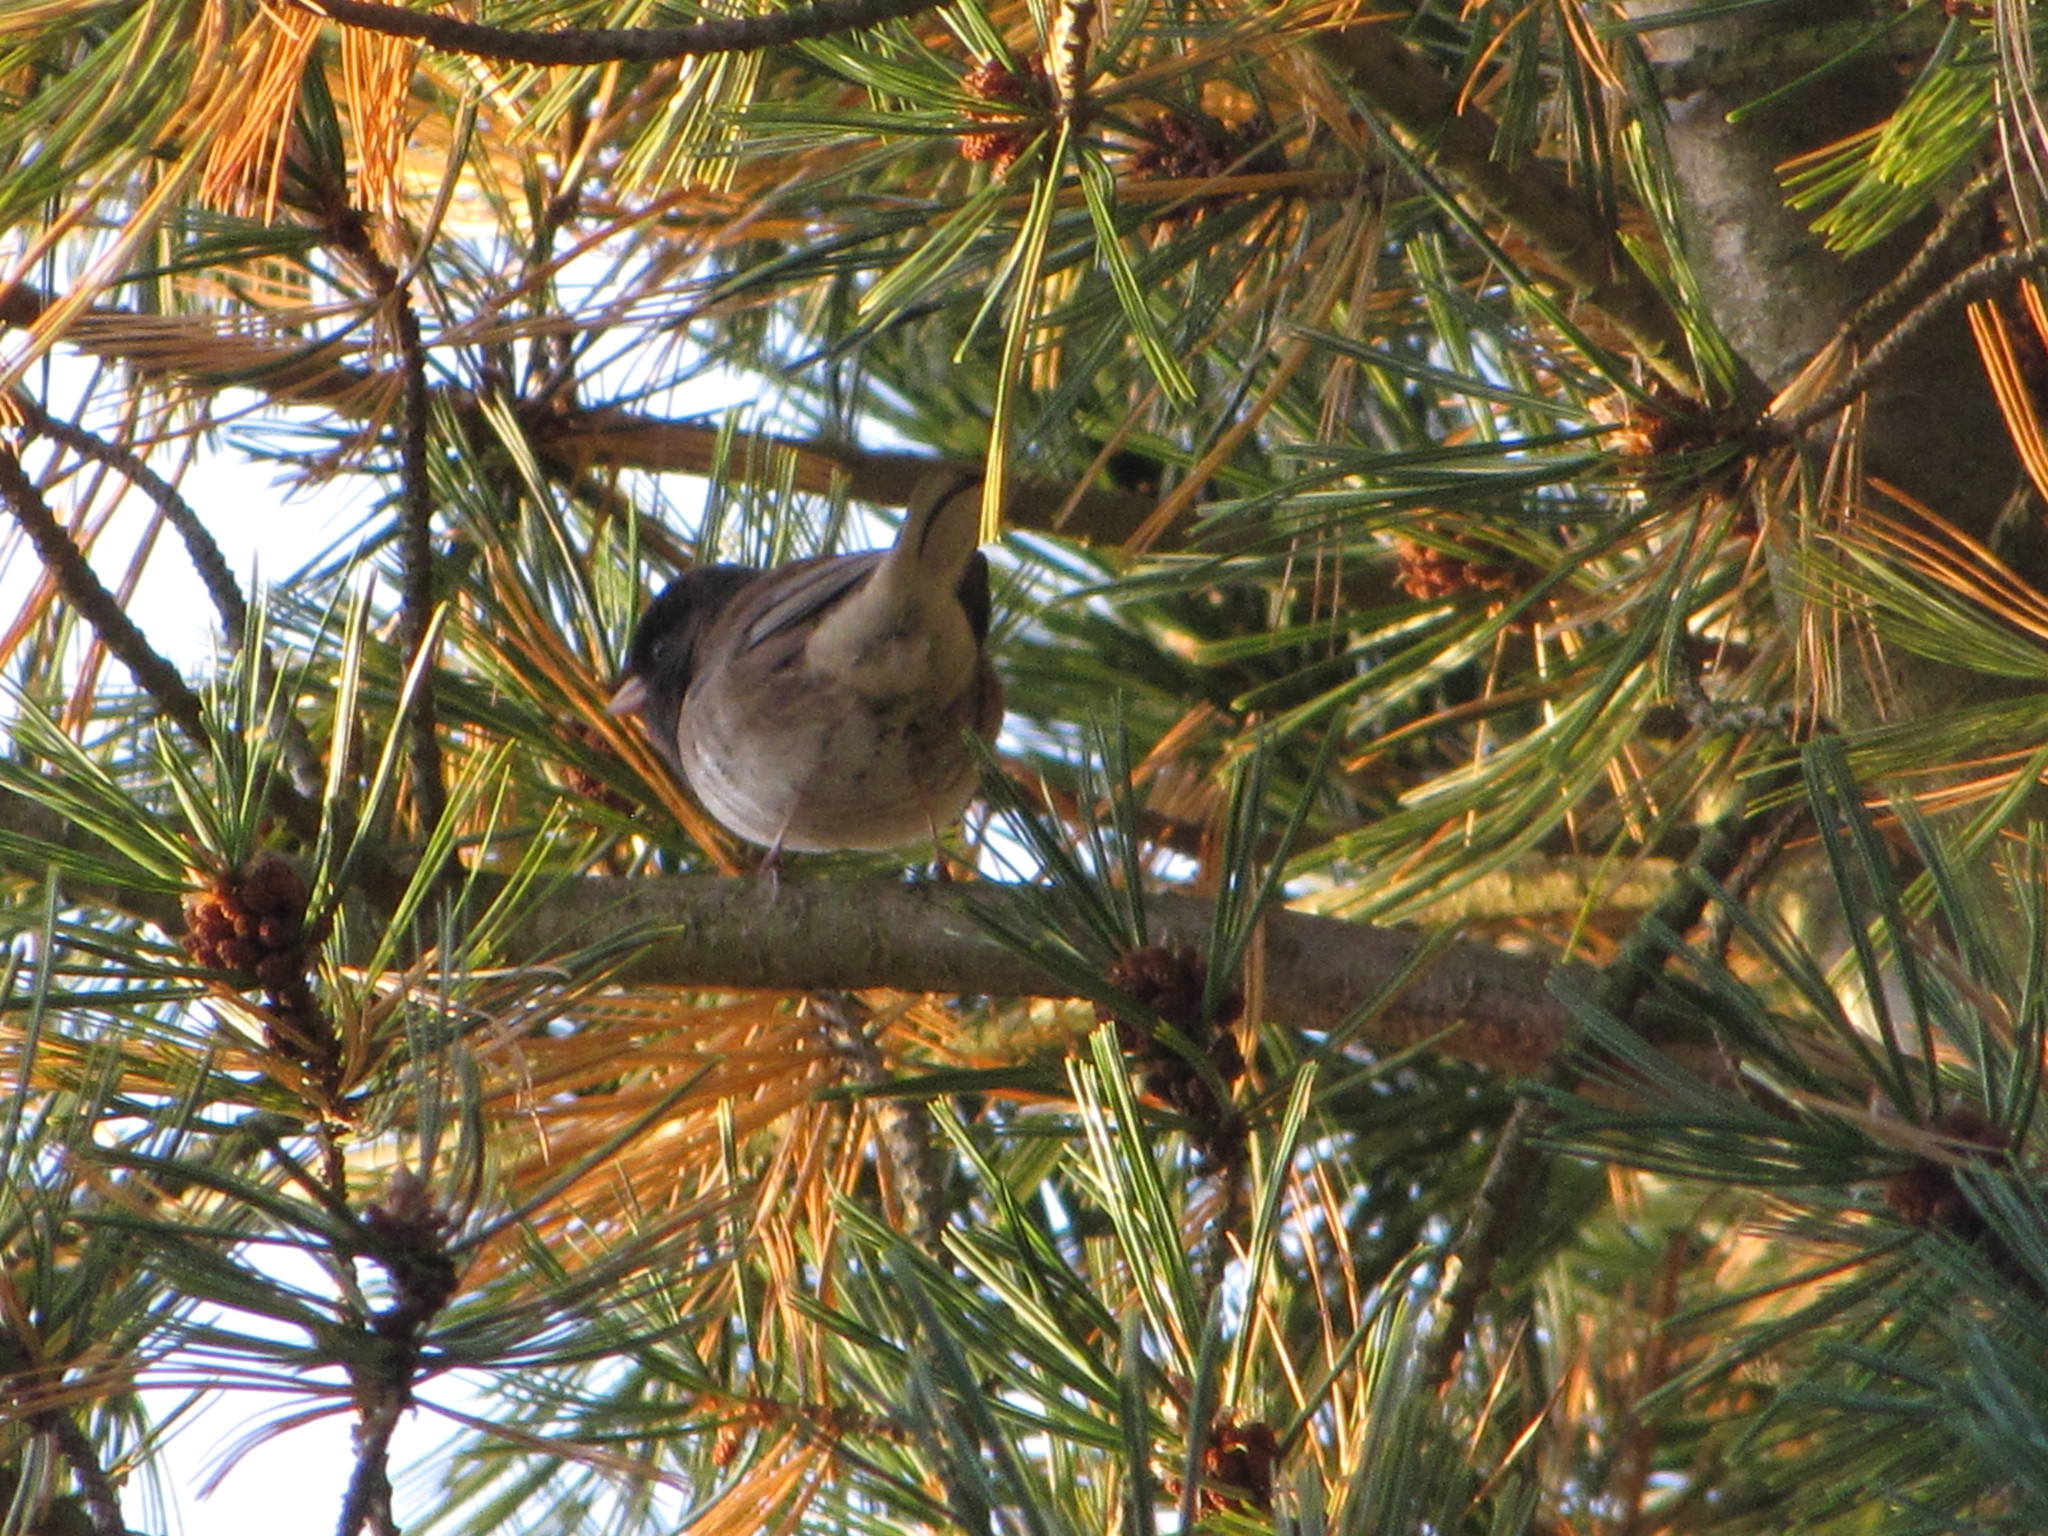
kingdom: Animalia
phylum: Chordata
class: Aves
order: Passeriformes
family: Passerellidae
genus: Junco
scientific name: Junco hyemalis
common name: Dark-eyed junco
